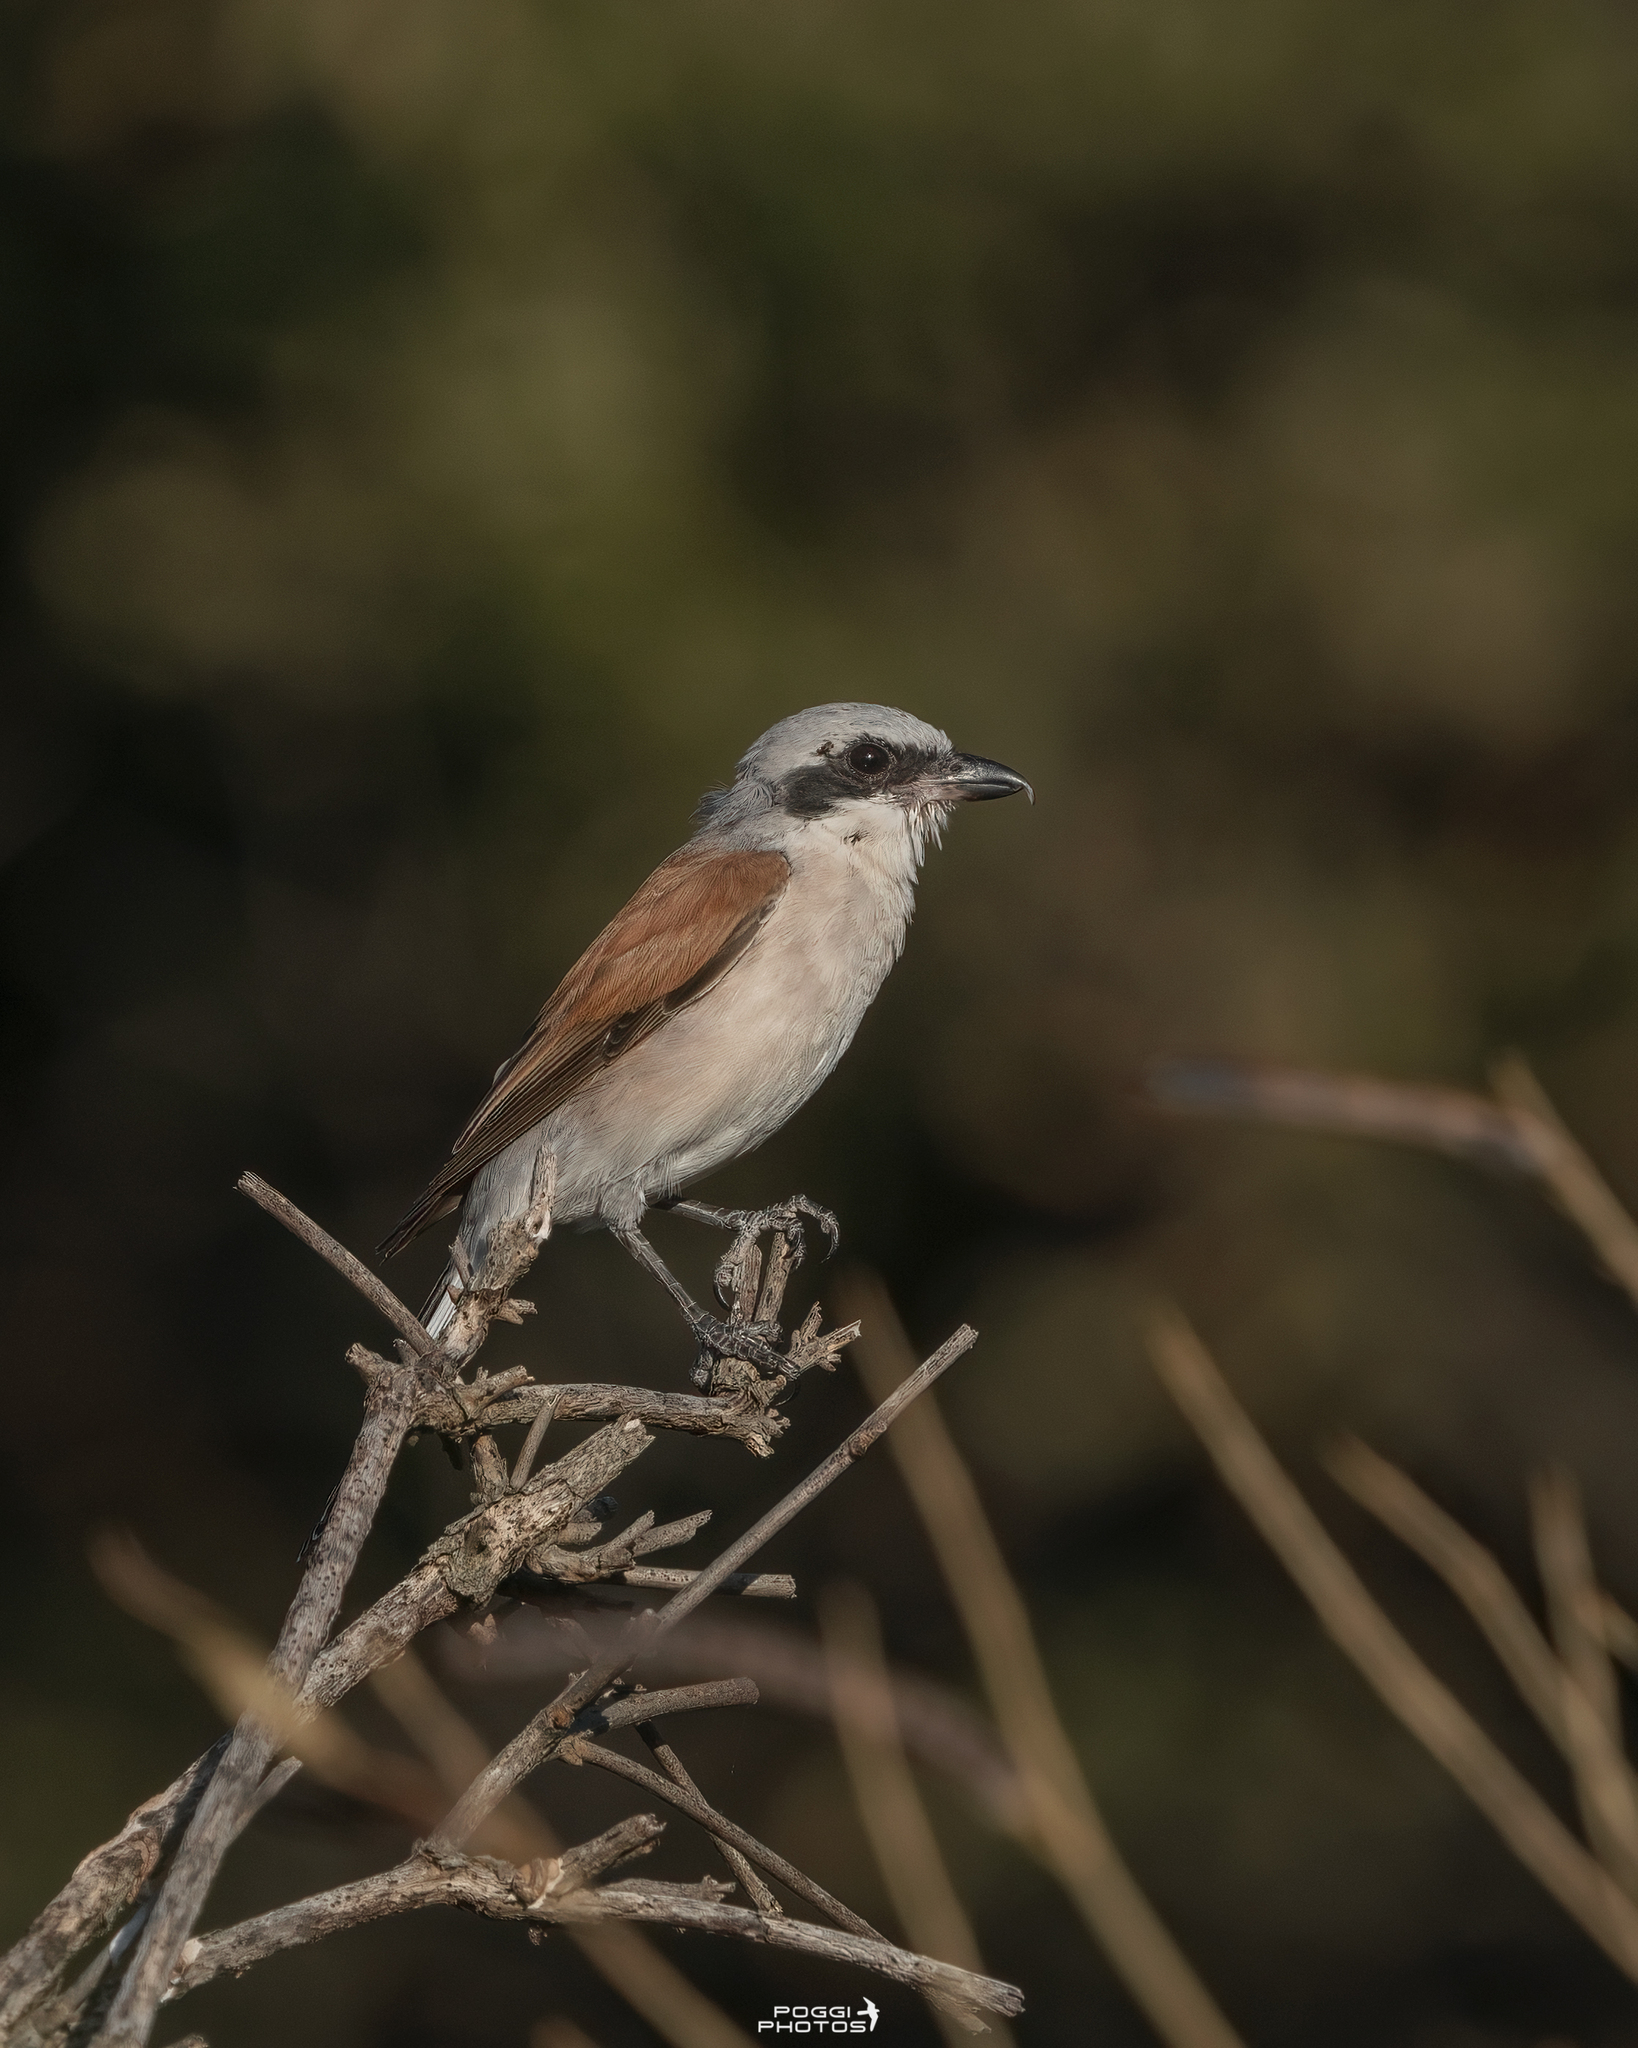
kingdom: Animalia
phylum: Chordata
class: Aves
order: Passeriformes
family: Laniidae
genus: Lanius
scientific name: Lanius collurio
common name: Red-backed shrike
